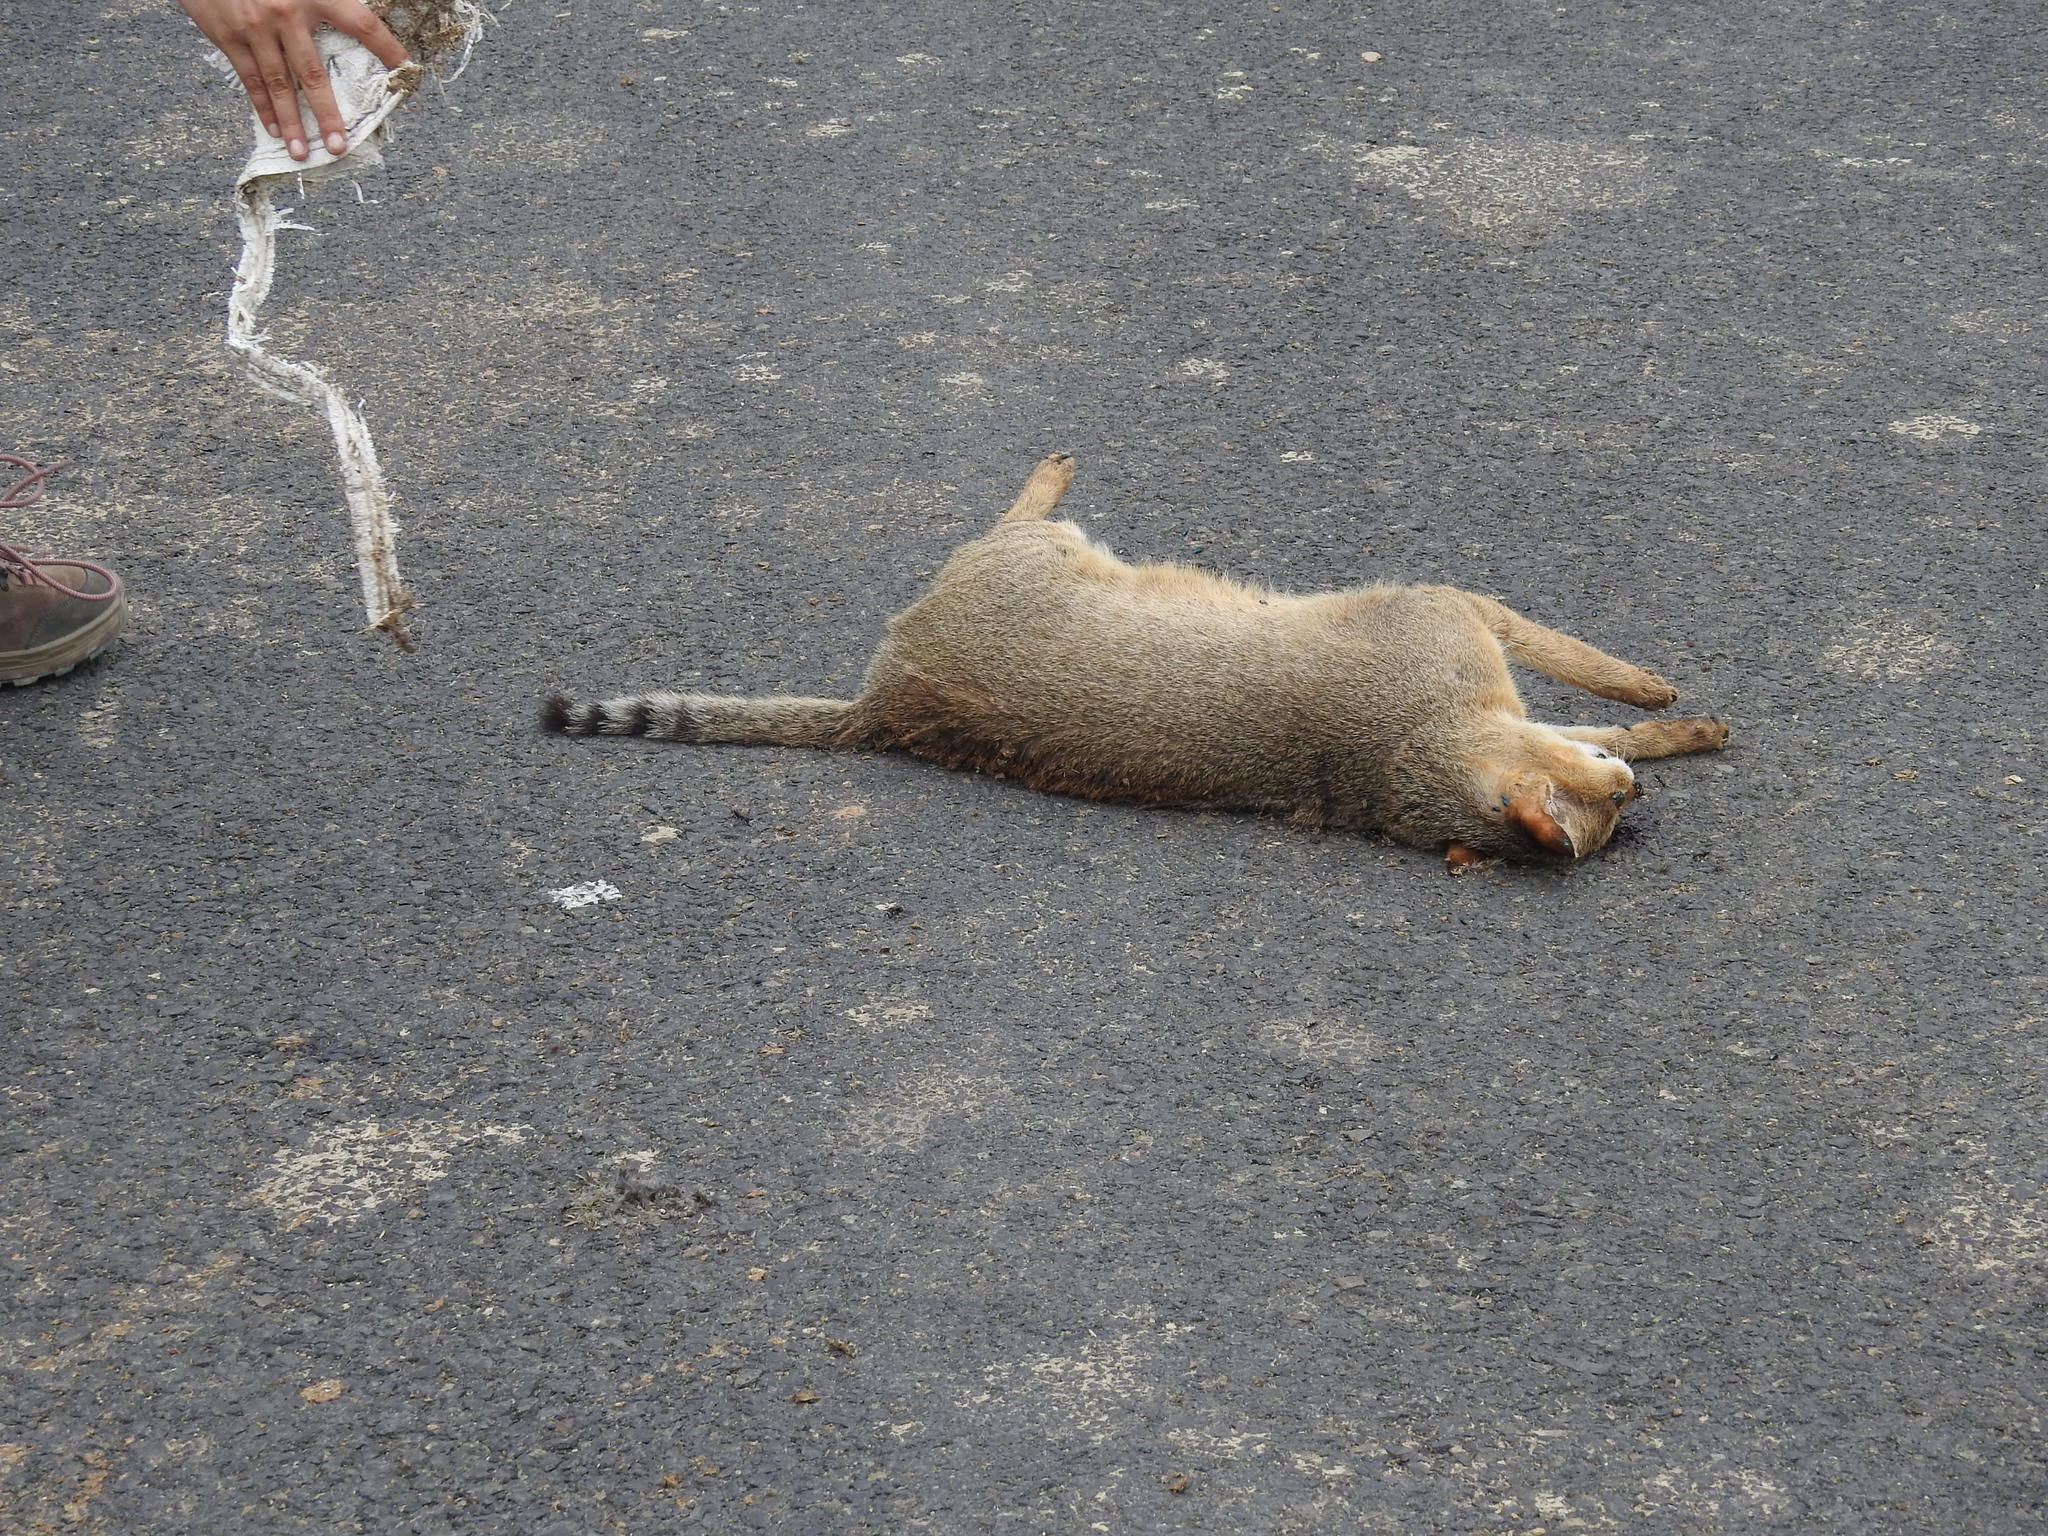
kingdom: Animalia
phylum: Chordata
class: Mammalia
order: Carnivora
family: Felidae
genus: Felis
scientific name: Felis chaus
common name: Jungle cat
